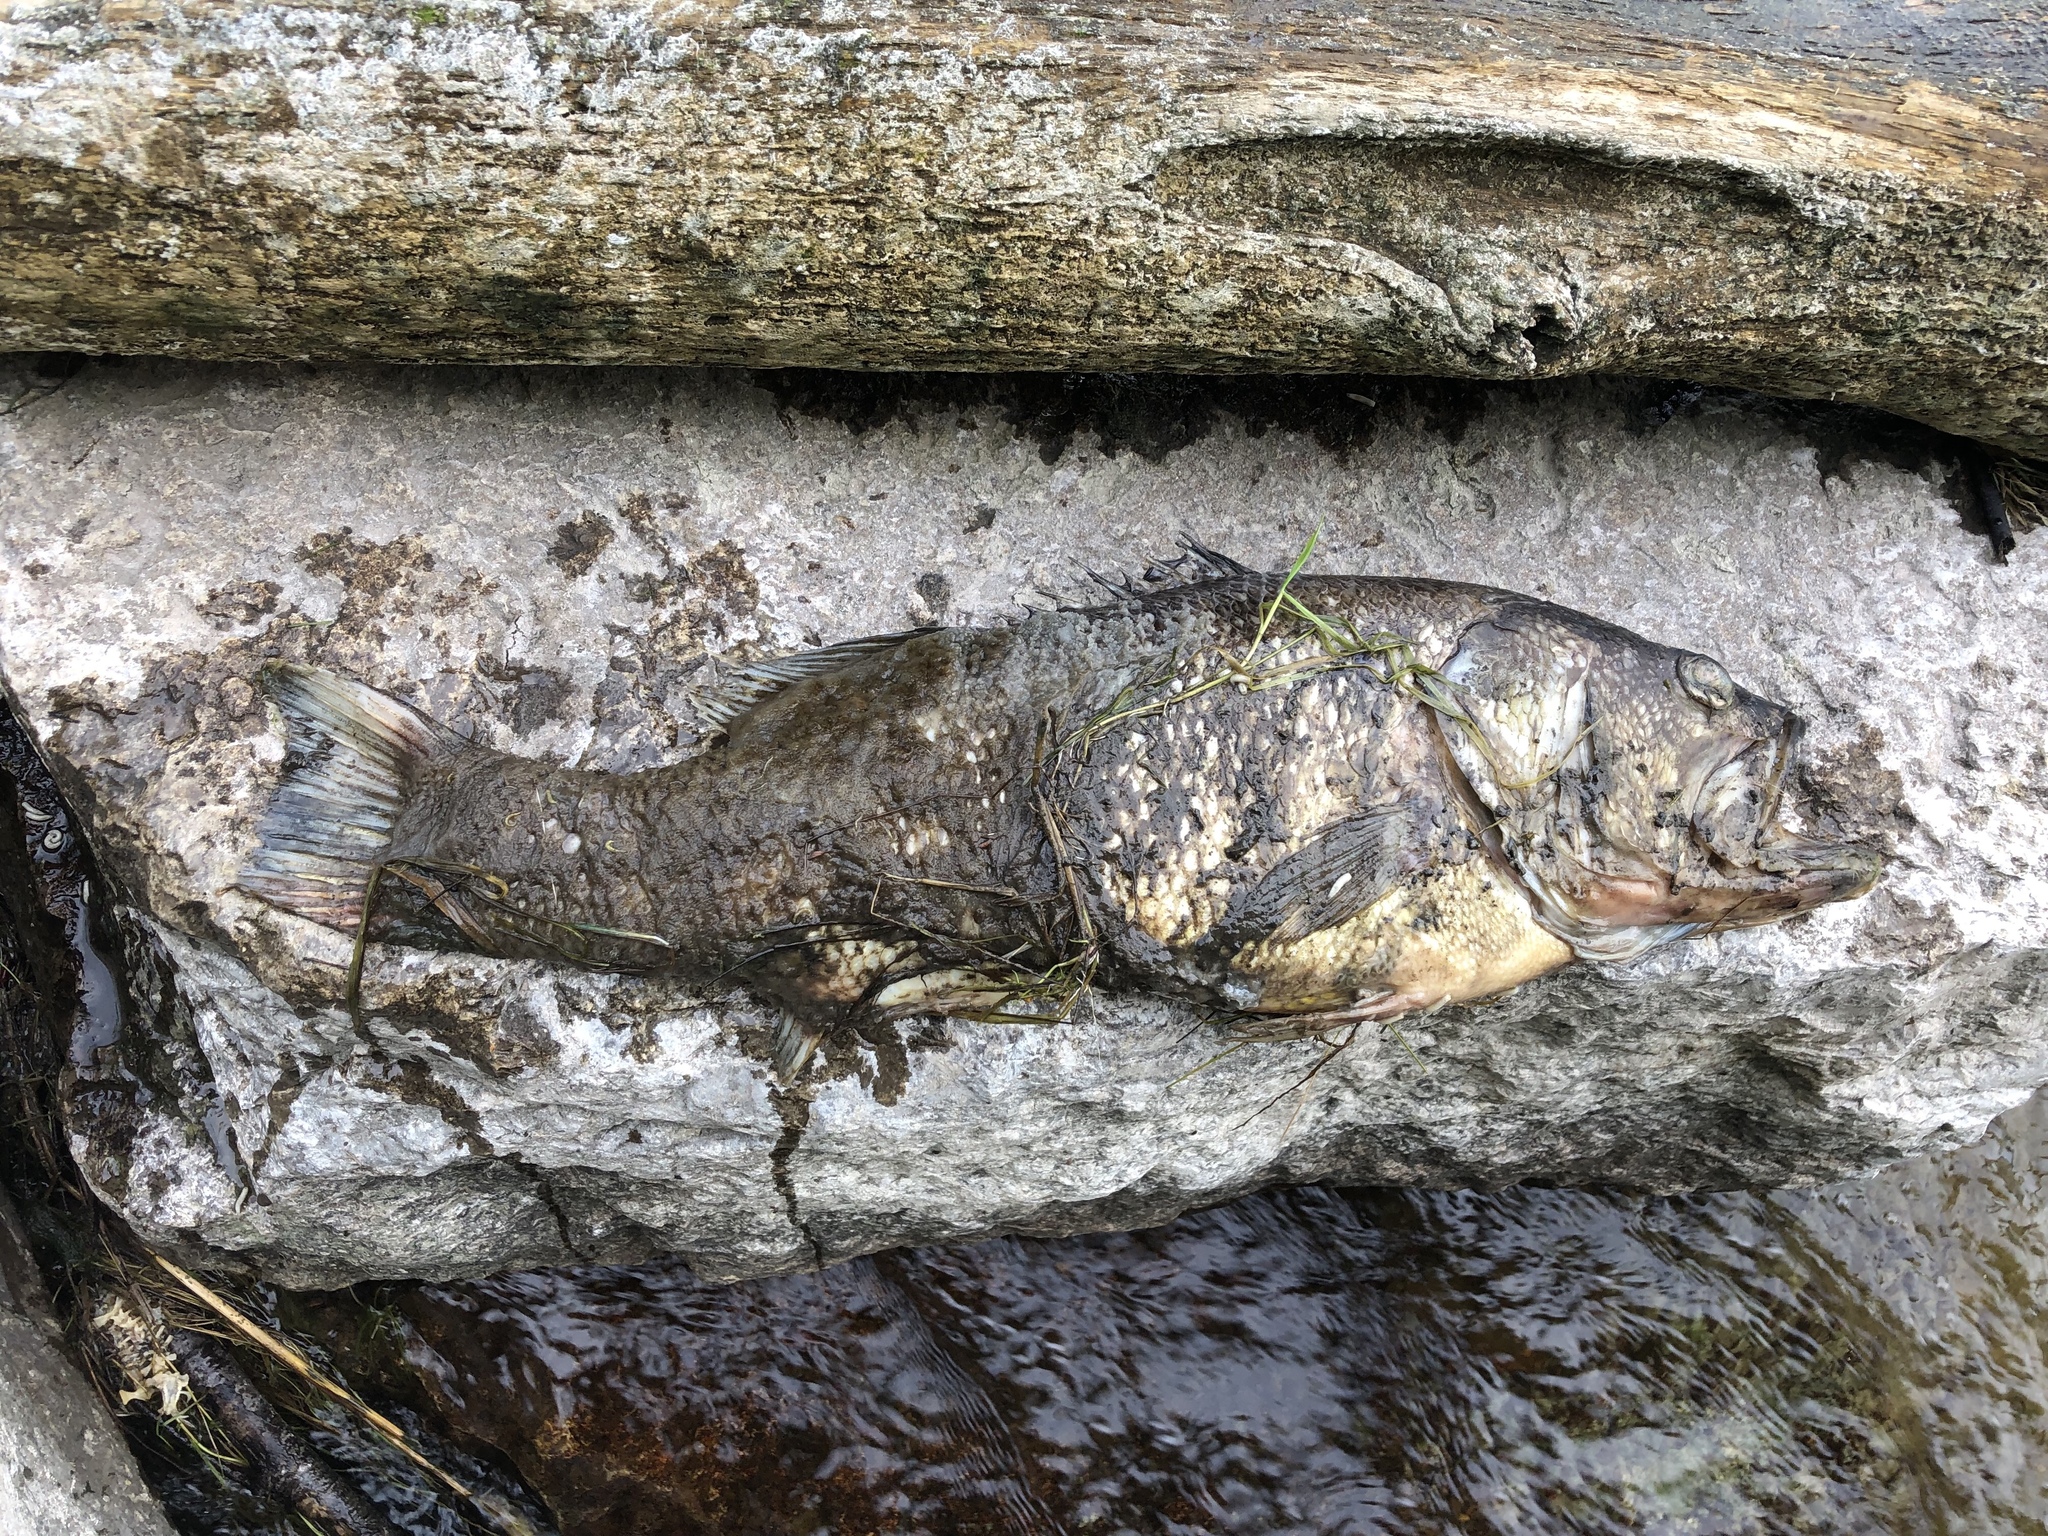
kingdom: Animalia
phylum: Chordata
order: Perciformes
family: Centrarchidae
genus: Micropterus
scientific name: Micropterus
